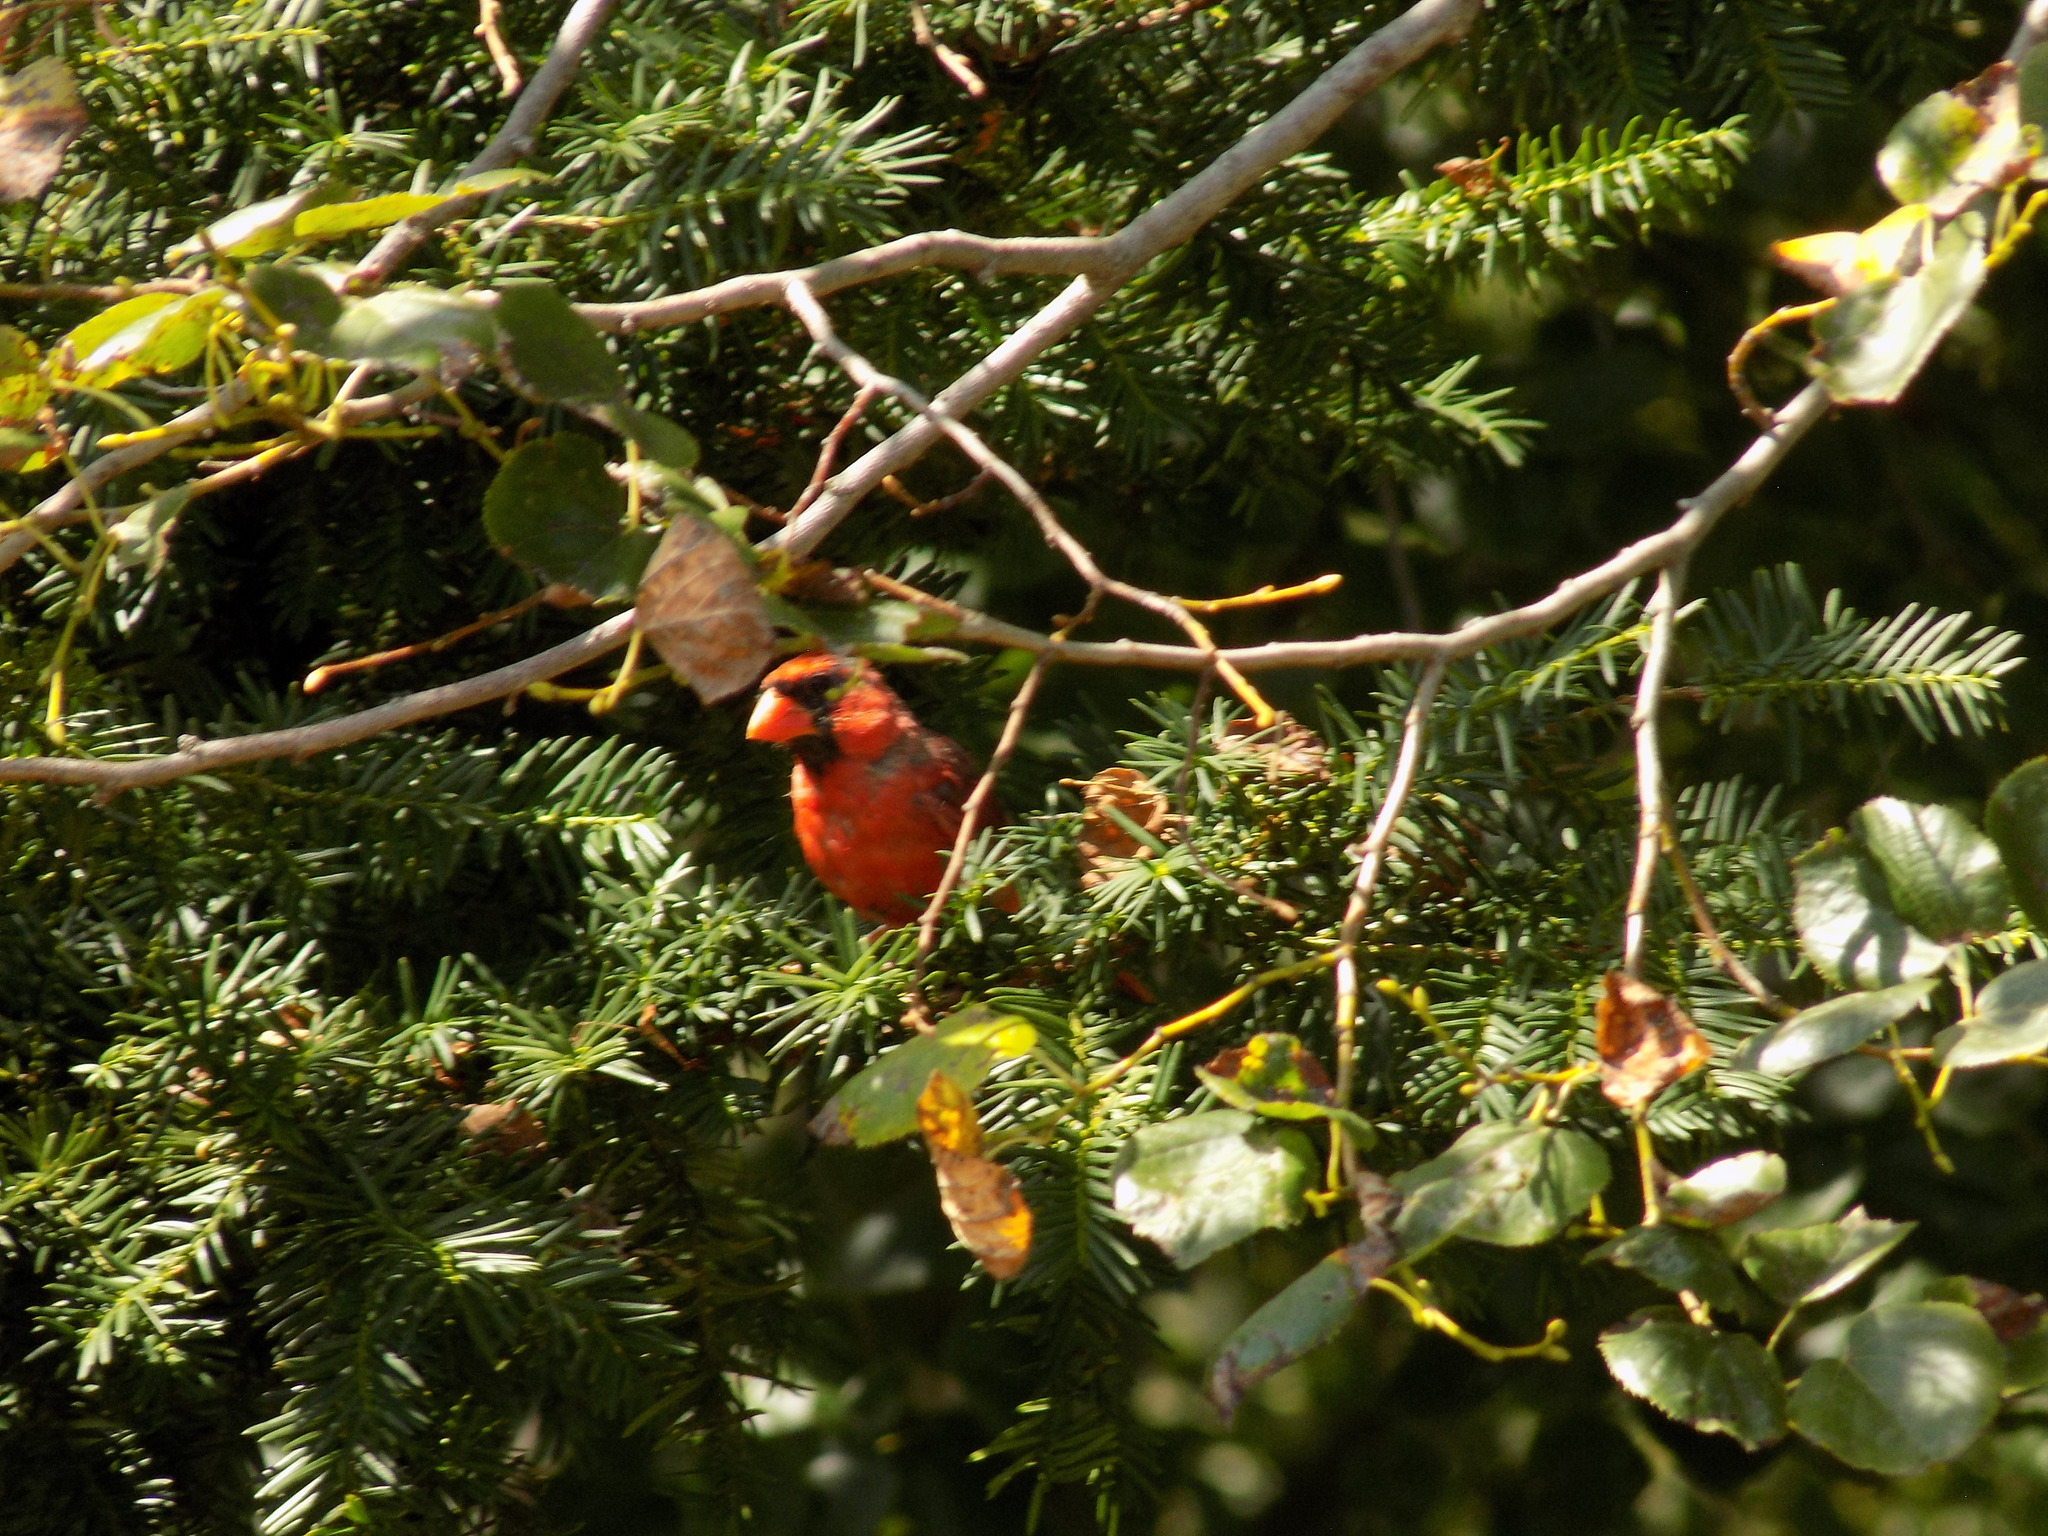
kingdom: Animalia
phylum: Chordata
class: Aves
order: Passeriformes
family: Cardinalidae
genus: Cardinalis
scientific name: Cardinalis cardinalis
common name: Northern cardinal
